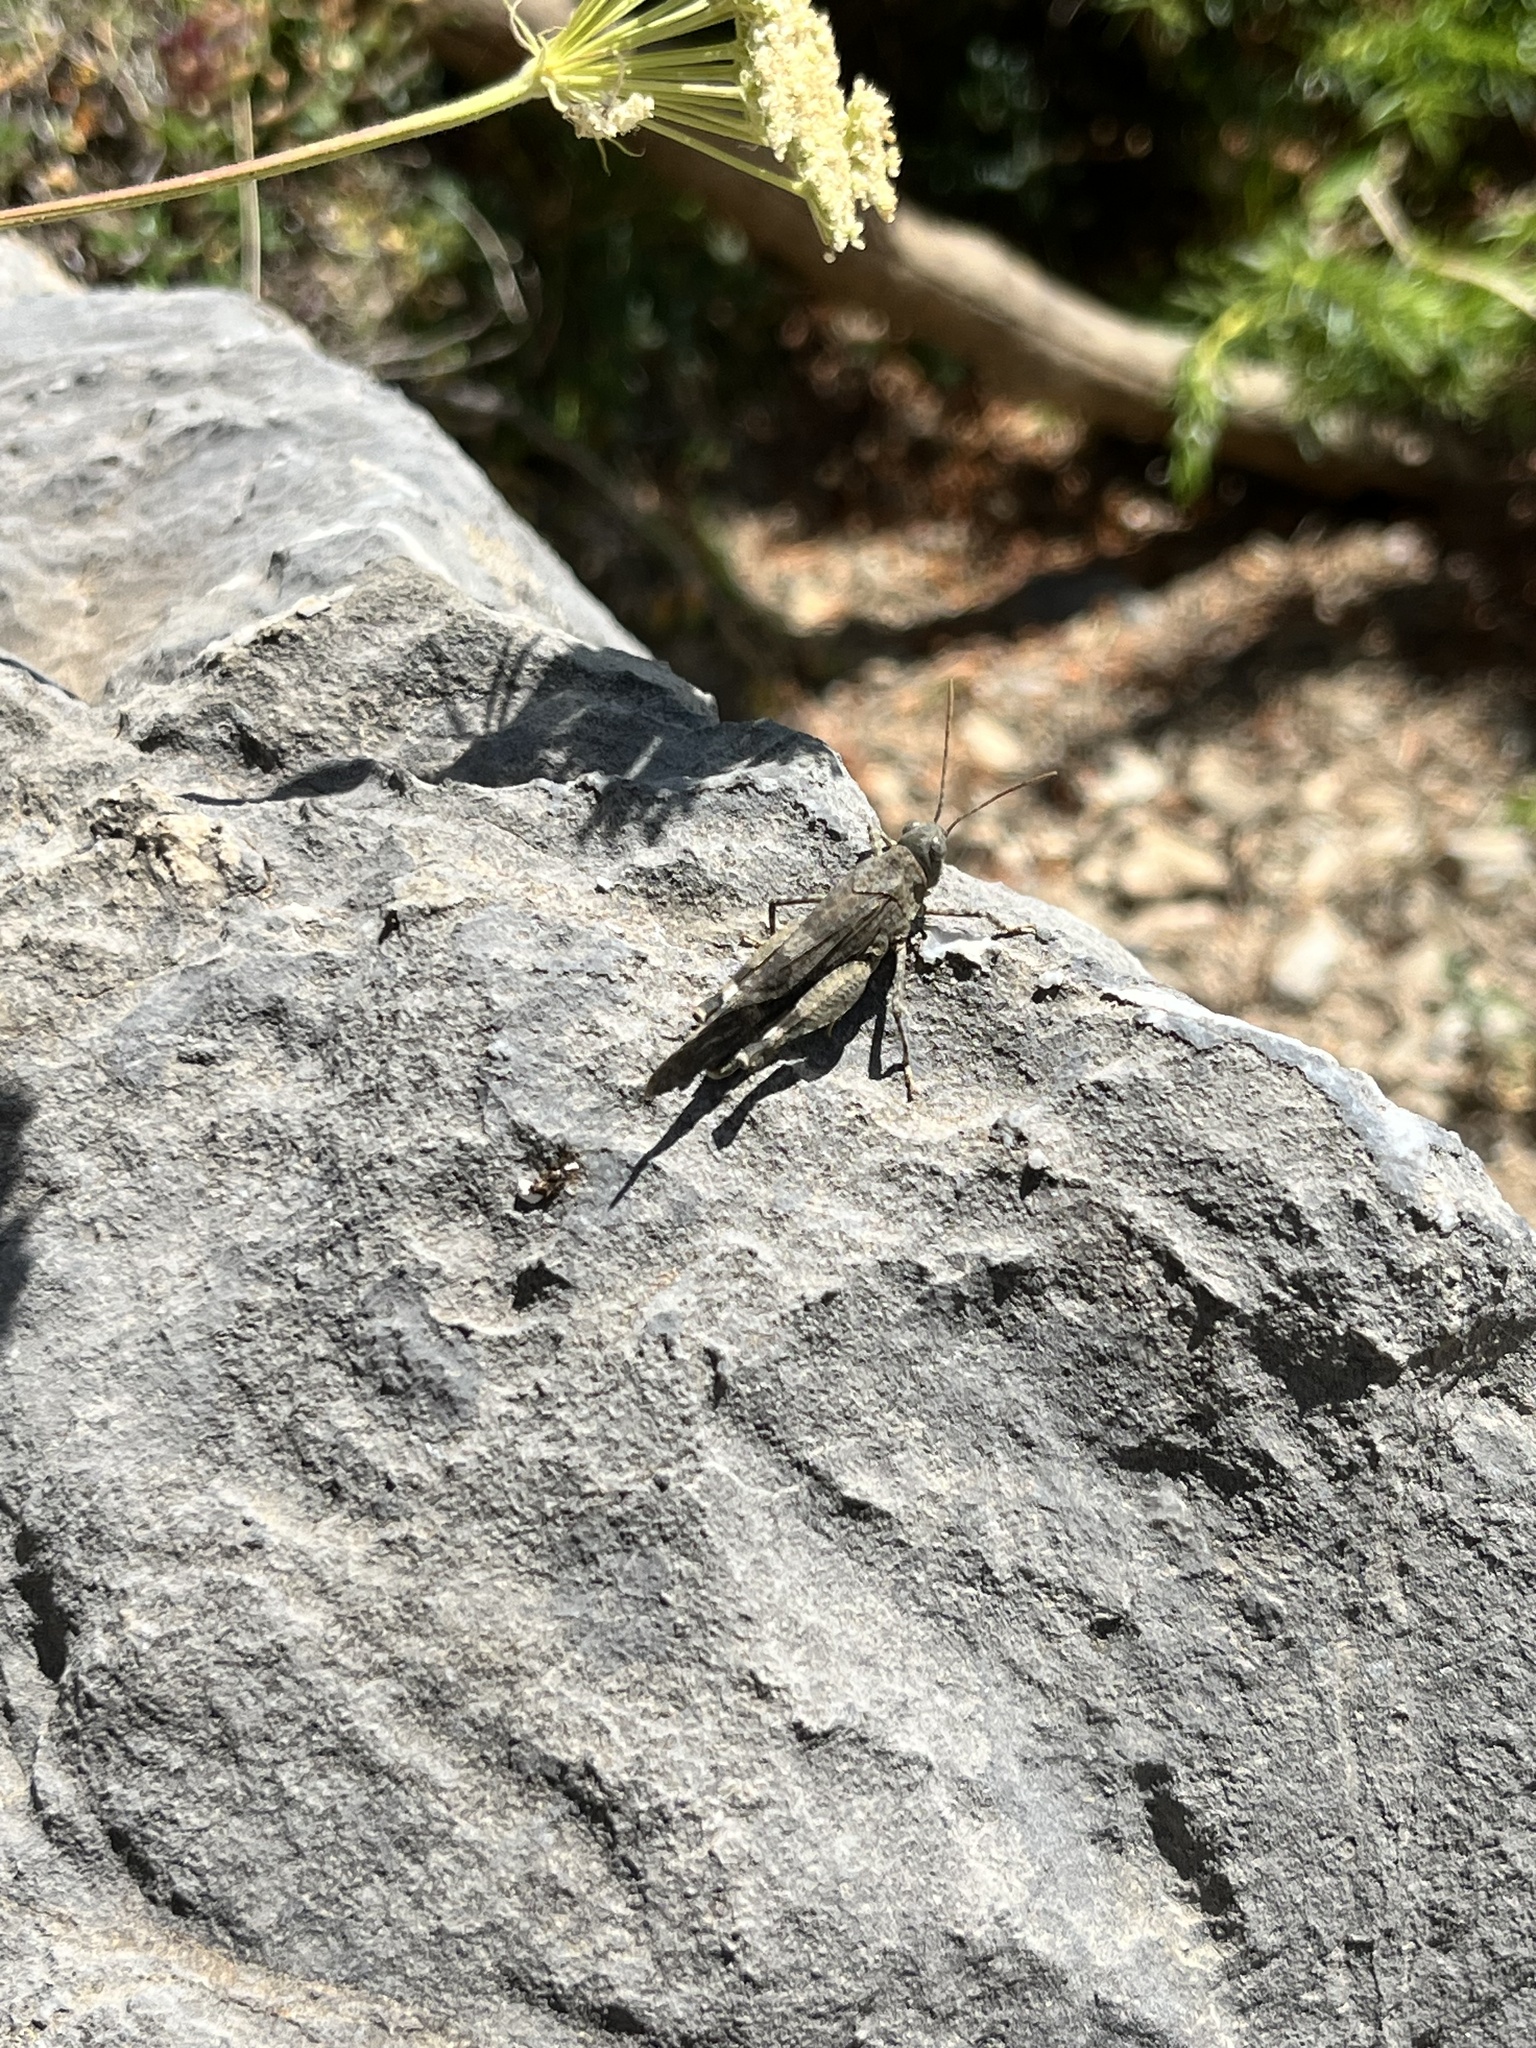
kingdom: Animalia
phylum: Arthropoda
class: Insecta
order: Orthoptera
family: Acrididae
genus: Oedipoda
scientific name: Oedipoda germanica
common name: Red band-winged grasshopper
